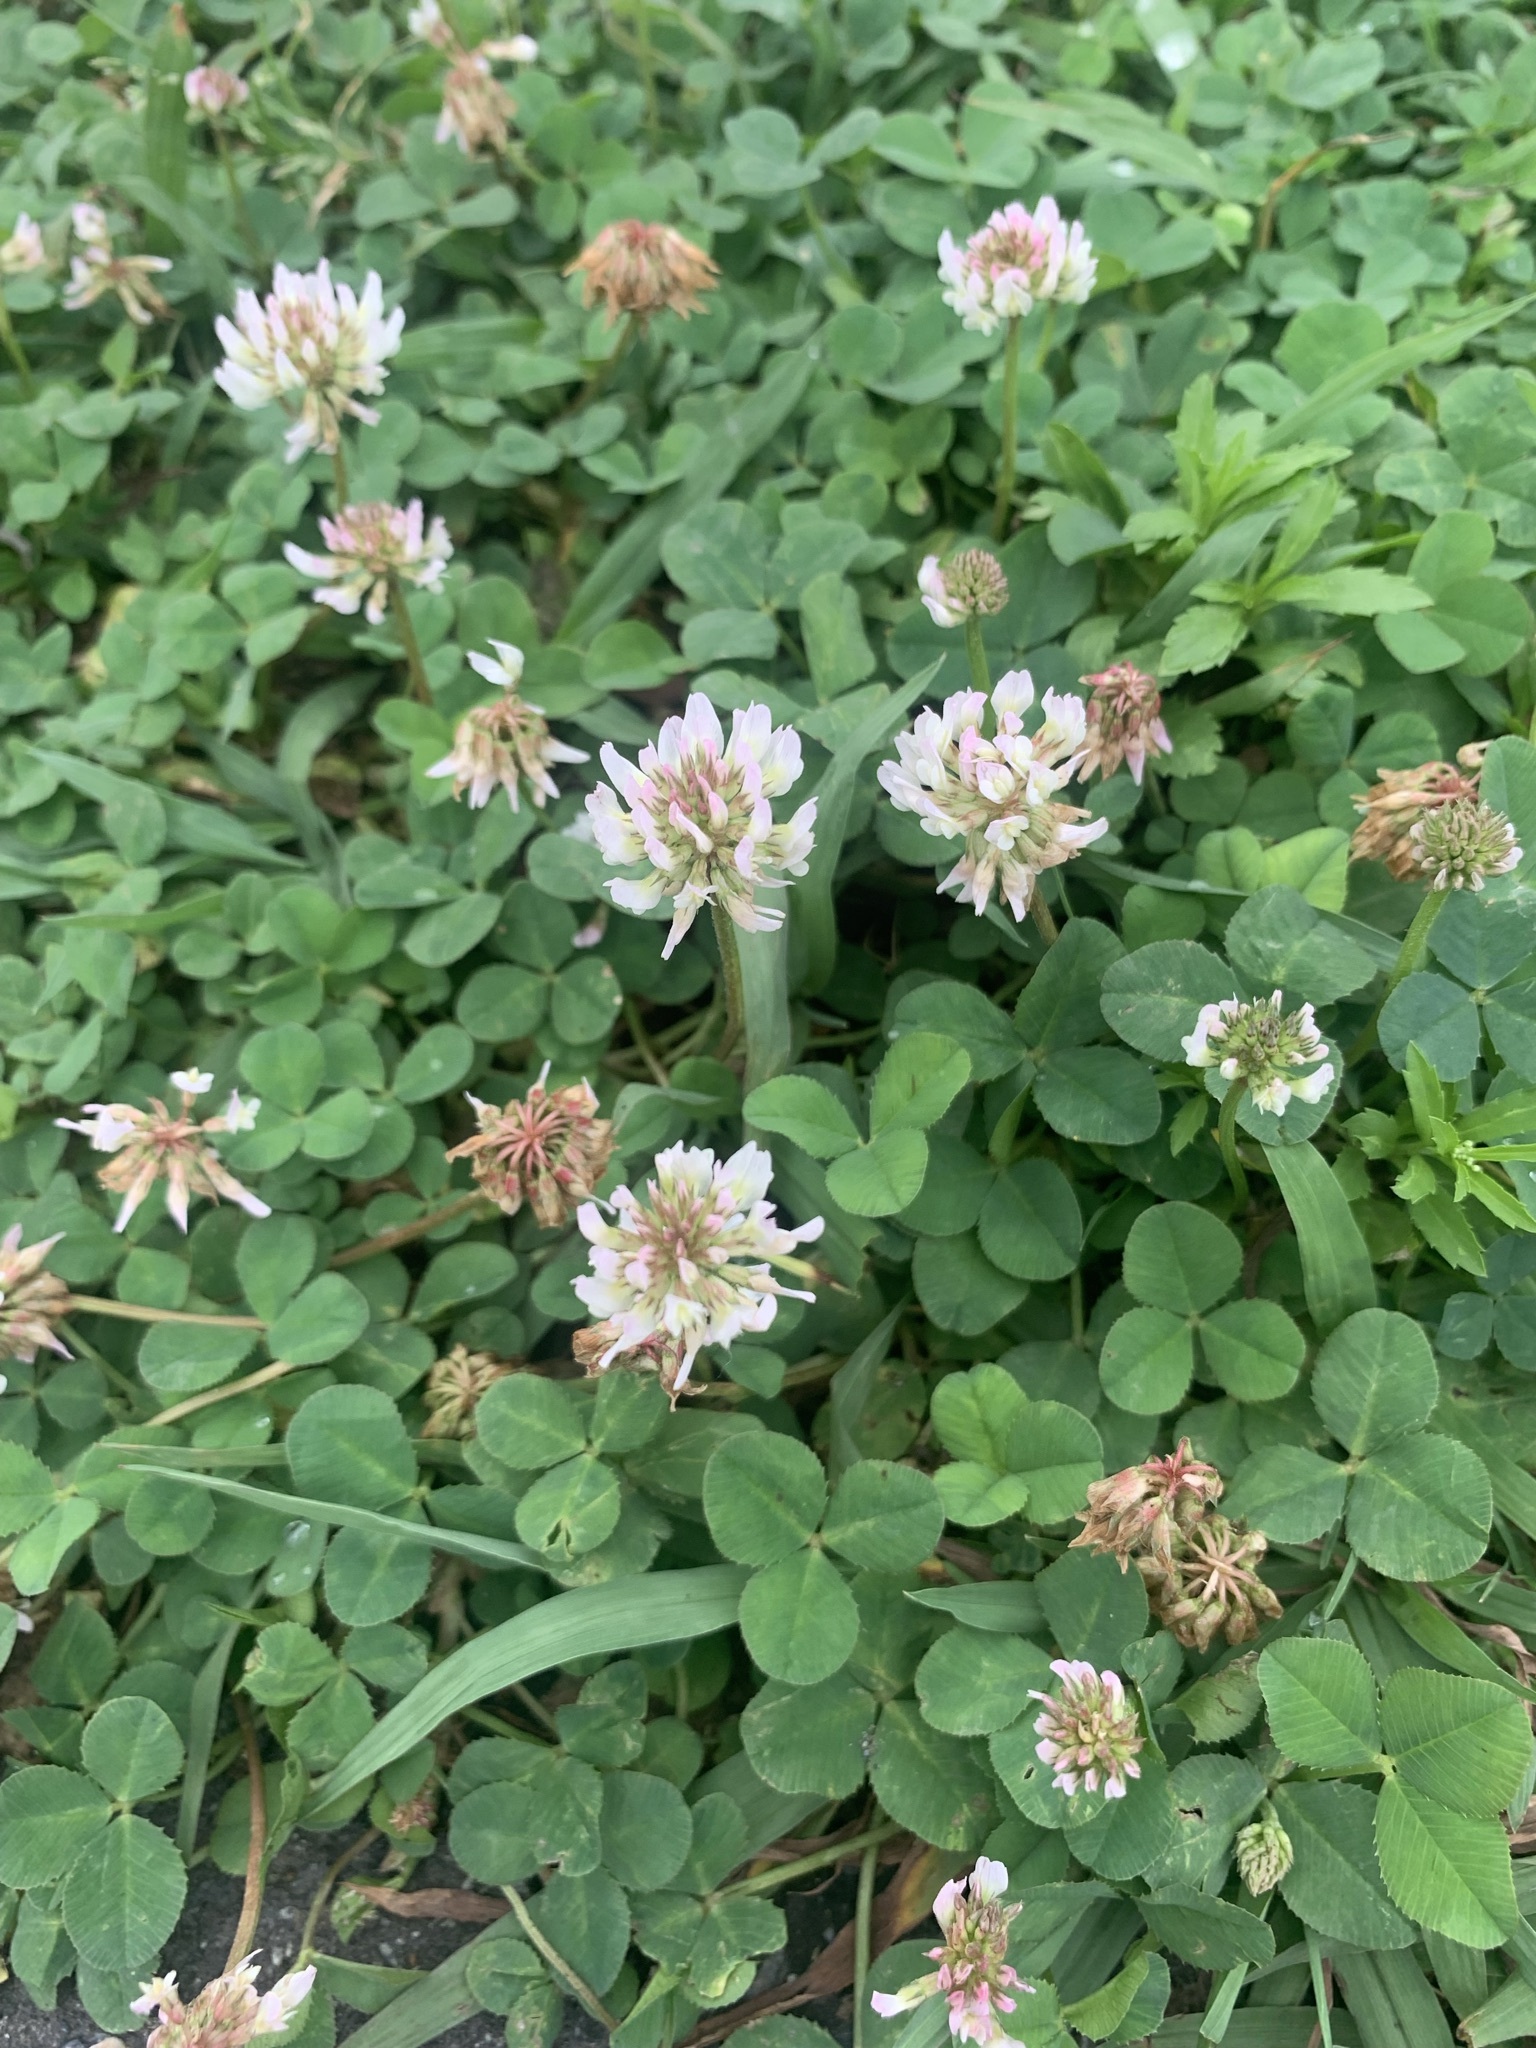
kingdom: Plantae
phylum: Tracheophyta
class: Magnoliopsida
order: Fabales
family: Fabaceae
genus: Trifolium
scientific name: Trifolium repens
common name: White clover
